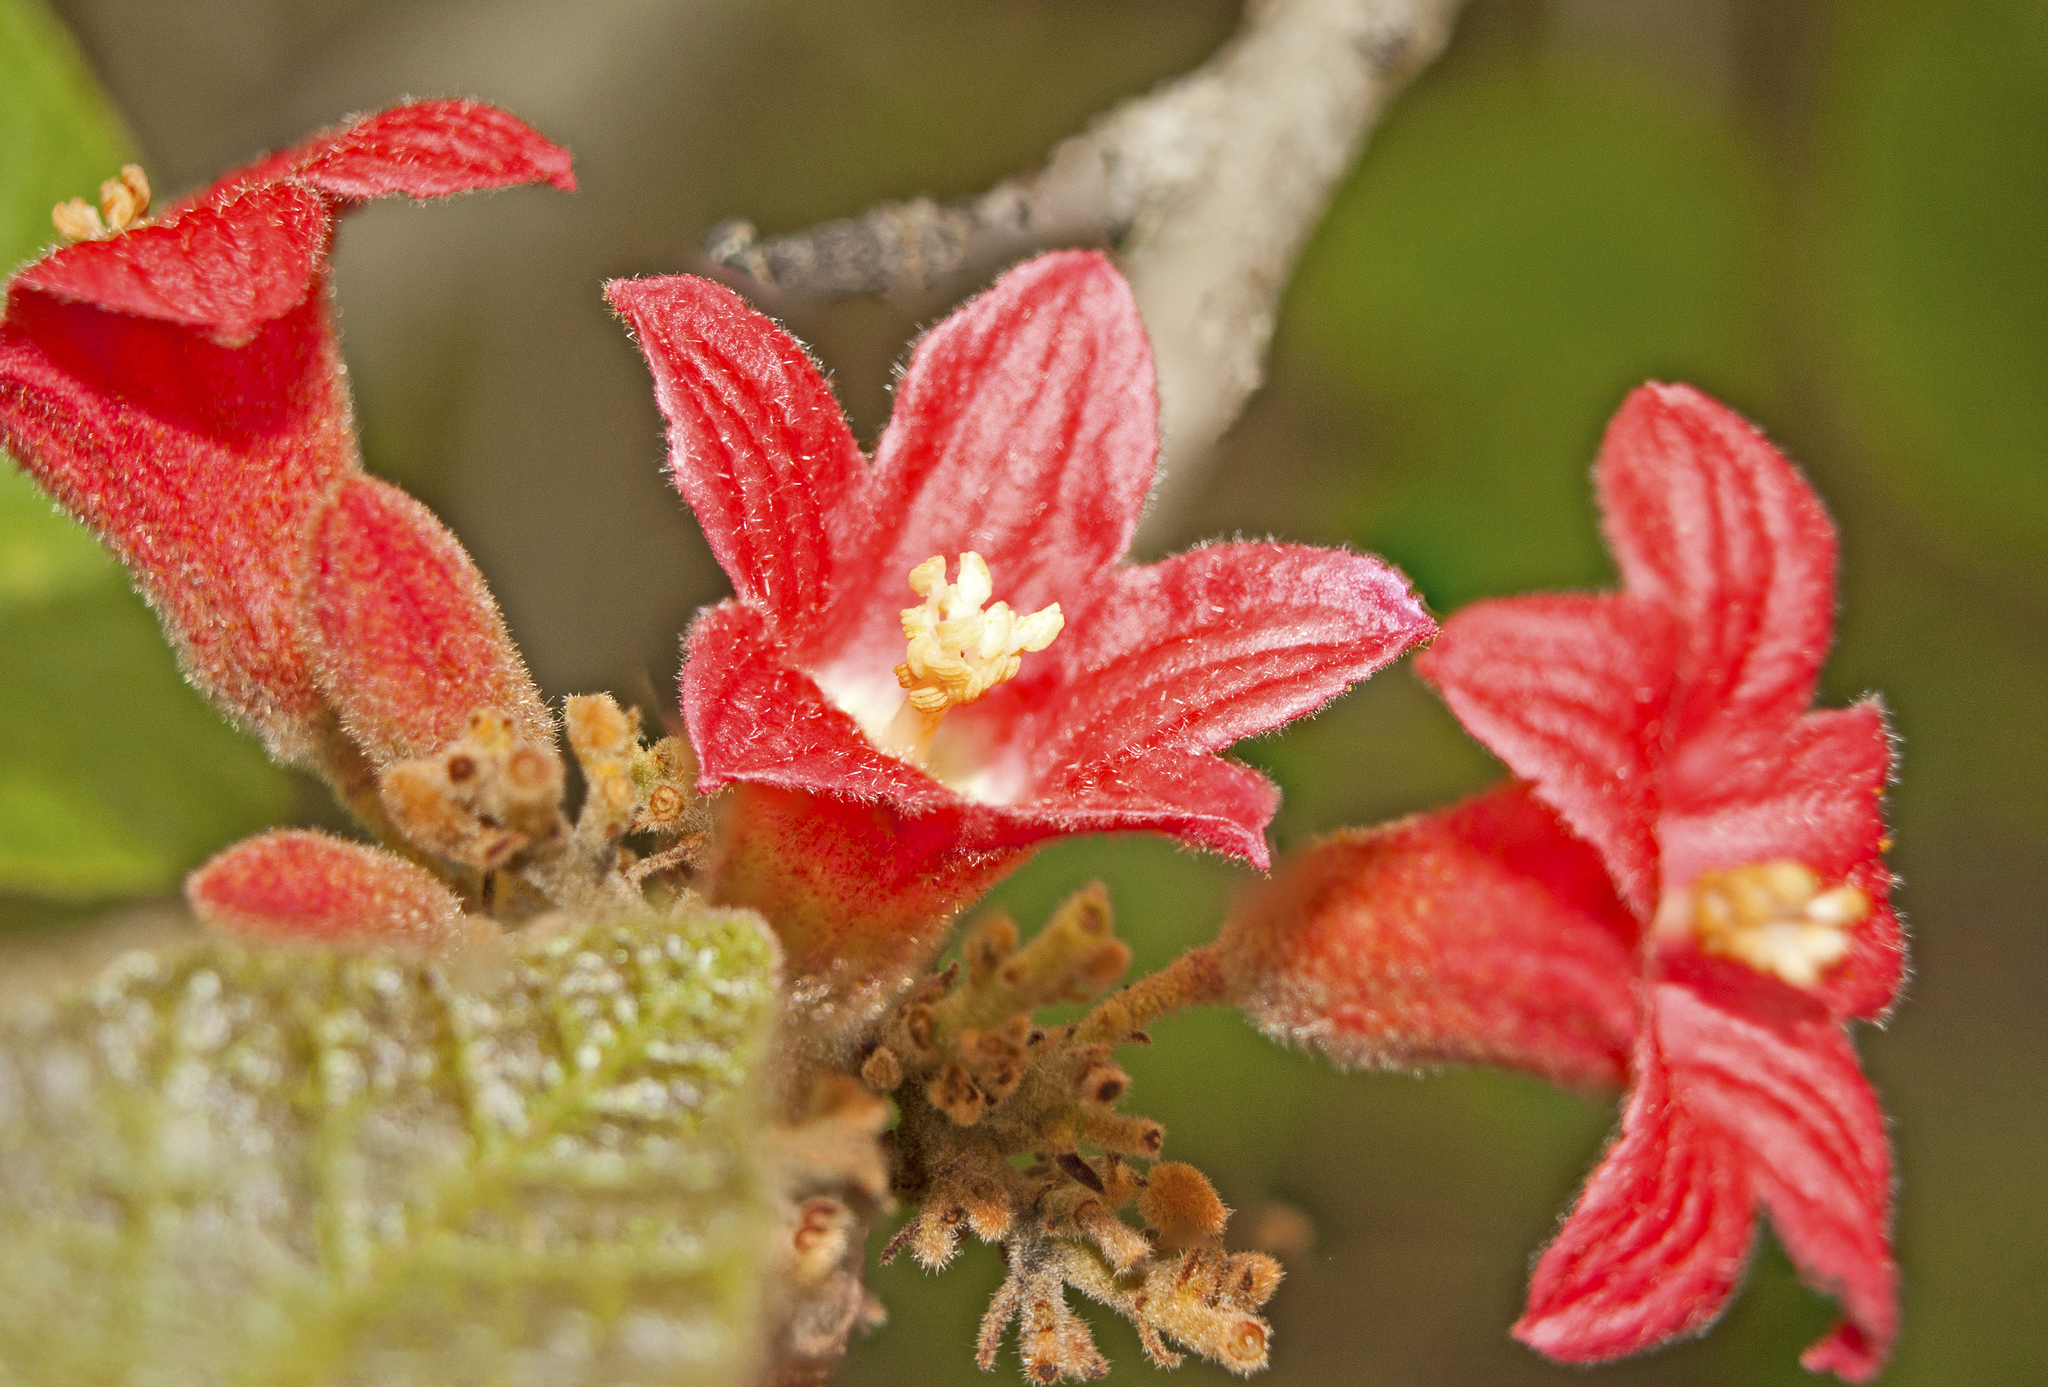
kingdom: Plantae
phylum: Tracheophyta
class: Magnoliopsida
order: Malvales
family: Malvaceae
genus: Brachychiton
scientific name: Brachychiton bidwillii
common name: Little kurrajong
